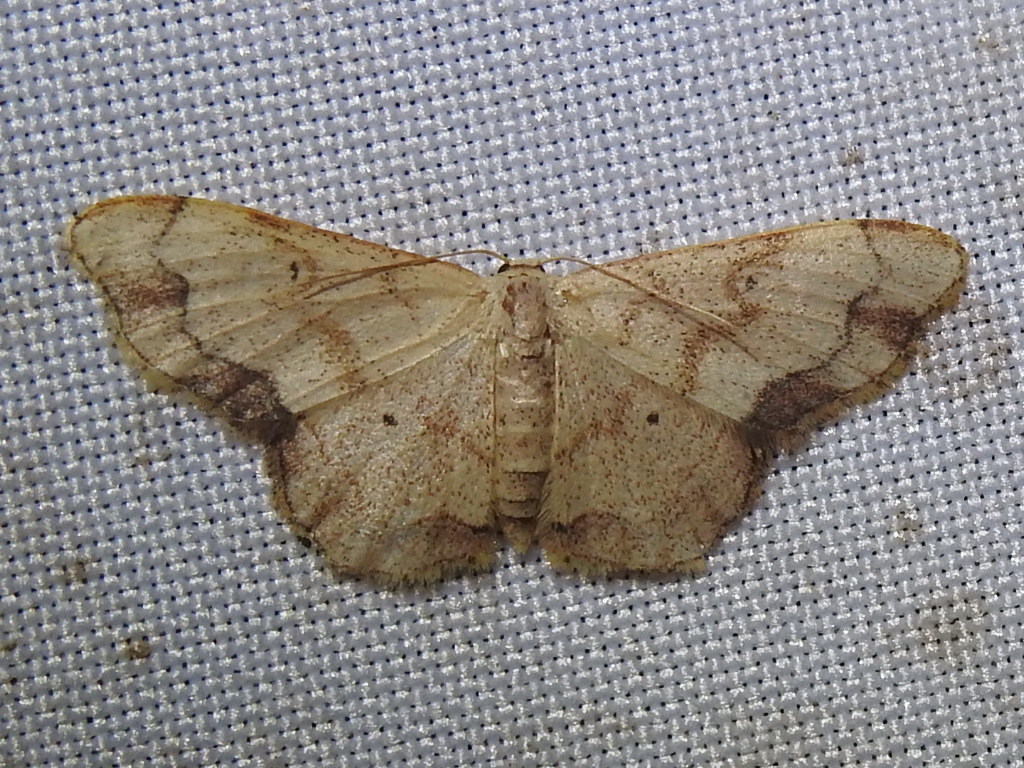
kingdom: Animalia
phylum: Arthropoda
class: Insecta
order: Lepidoptera
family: Geometridae
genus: Lobocleta
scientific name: Lobocleta subcincta
